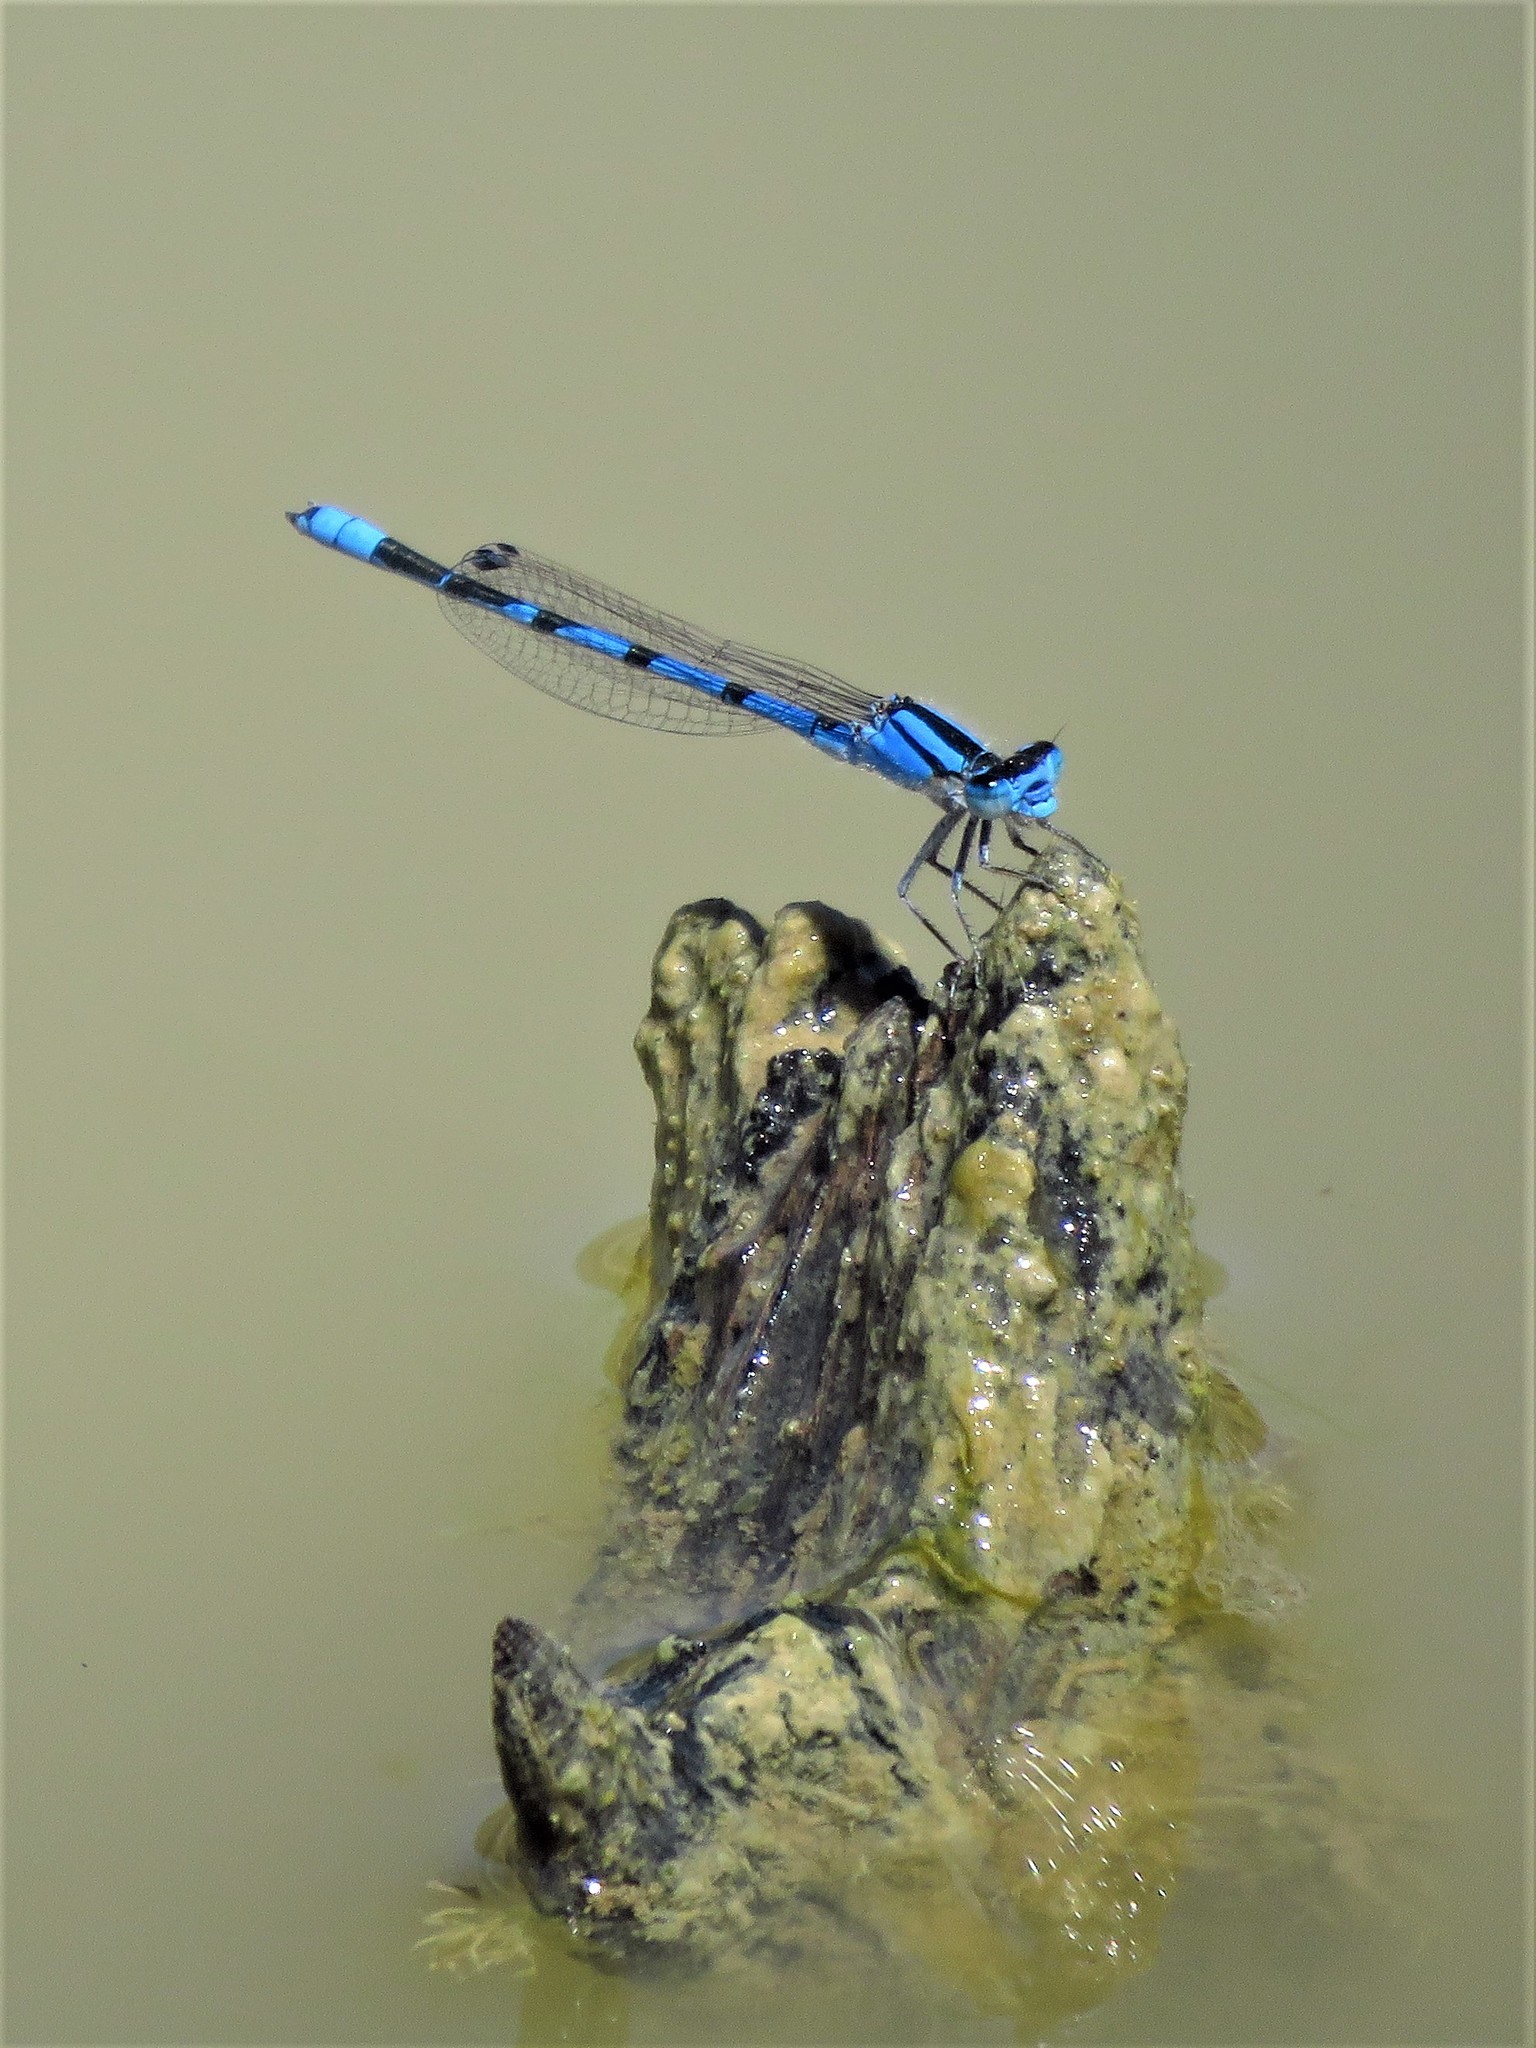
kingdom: Animalia
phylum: Arthropoda
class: Insecta
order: Odonata
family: Coenagrionidae
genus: Enallagma
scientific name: Enallagma civile
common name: Damselfly
